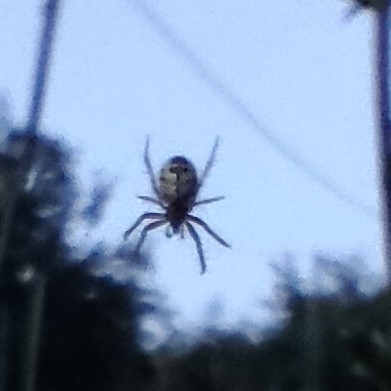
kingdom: Animalia
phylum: Arthropoda
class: Arachnida
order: Araneae
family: Araneidae
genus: Mangora
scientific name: Mangora acalypha
